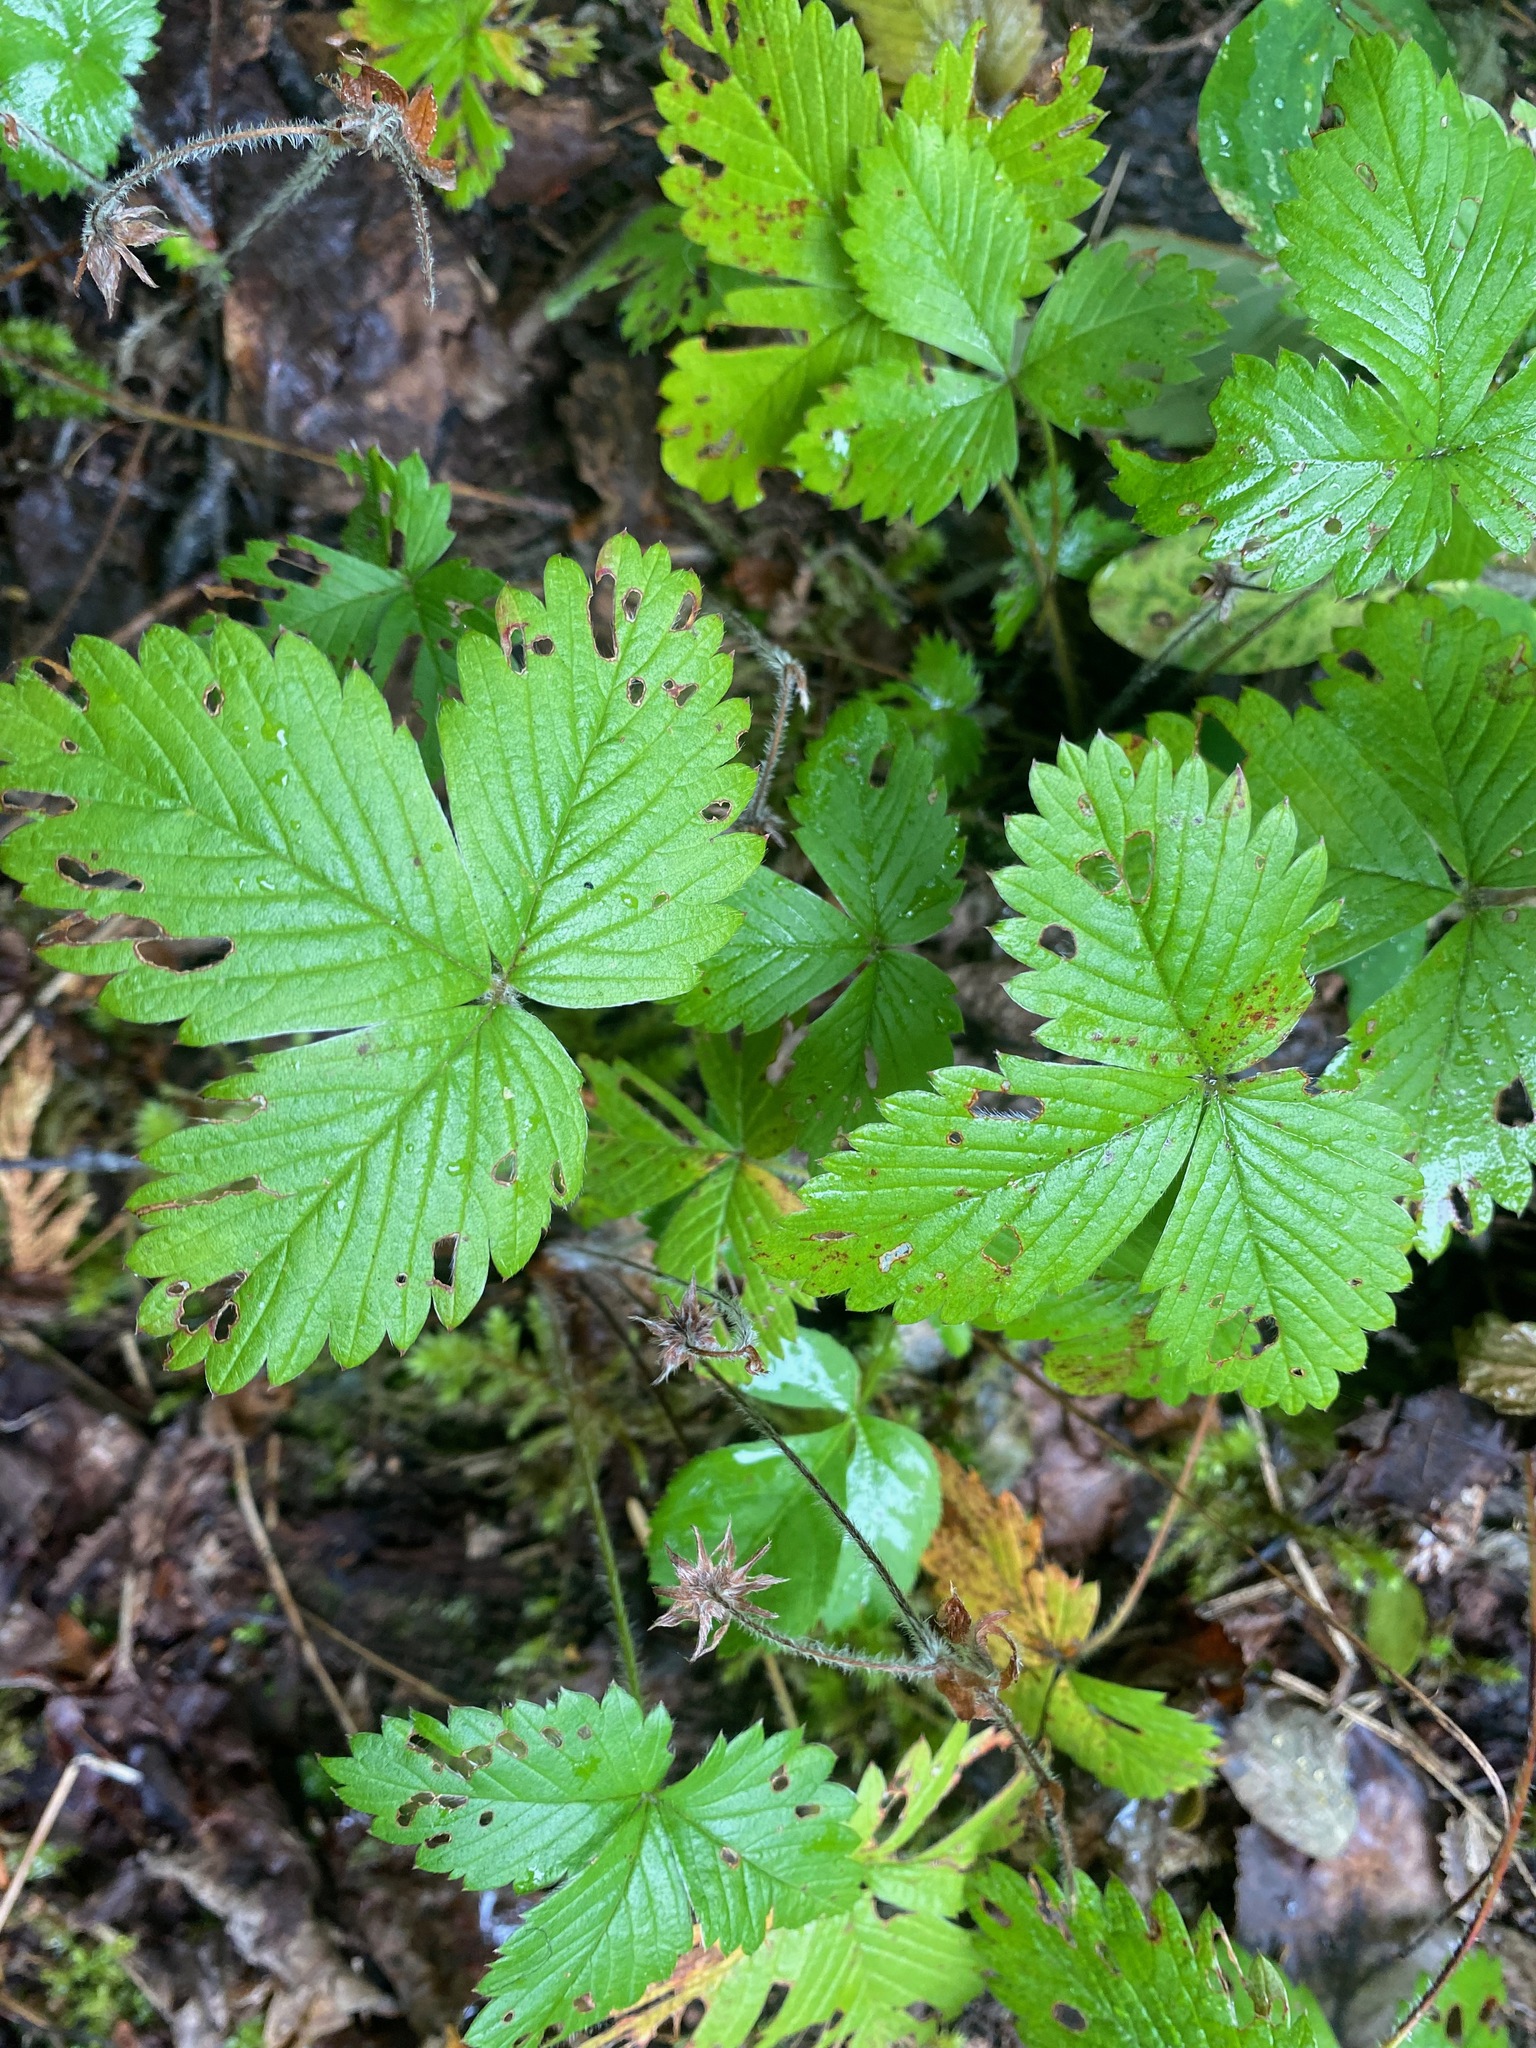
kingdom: Plantae
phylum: Tracheophyta
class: Magnoliopsida
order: Rosales
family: Rosaceae
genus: Fragaria
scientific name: Fragaria vesca
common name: Wild strawberry
